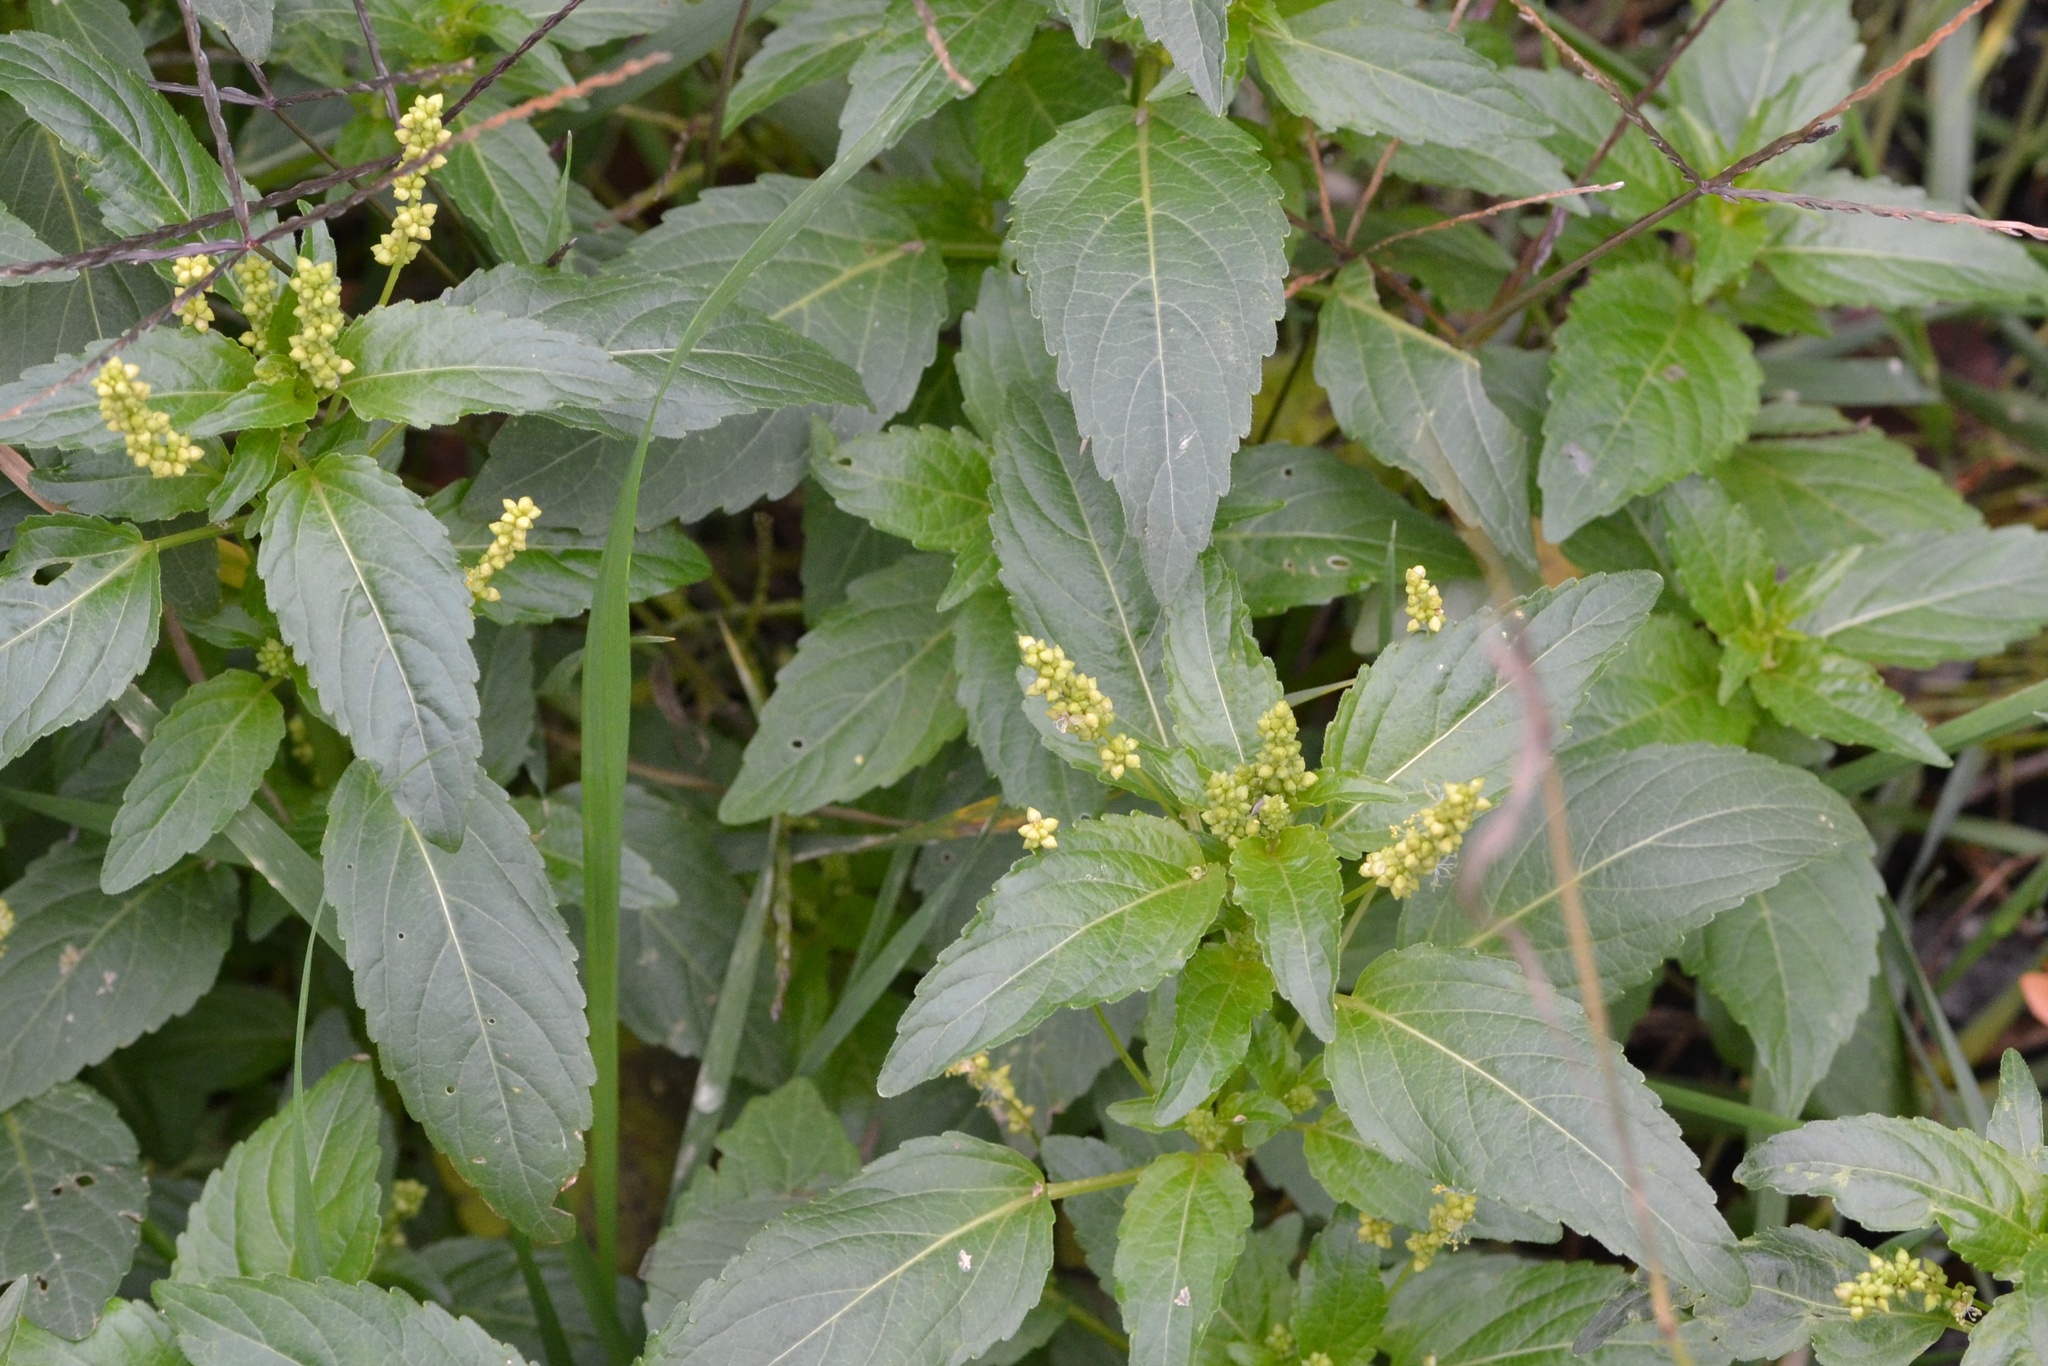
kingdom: Plantae
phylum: Tracheophyta
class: Magnoliopsida
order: Malpighiales
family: Euphorbiaceae
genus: Mercurialis
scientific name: Mercurialis annua
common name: Annual mercury
